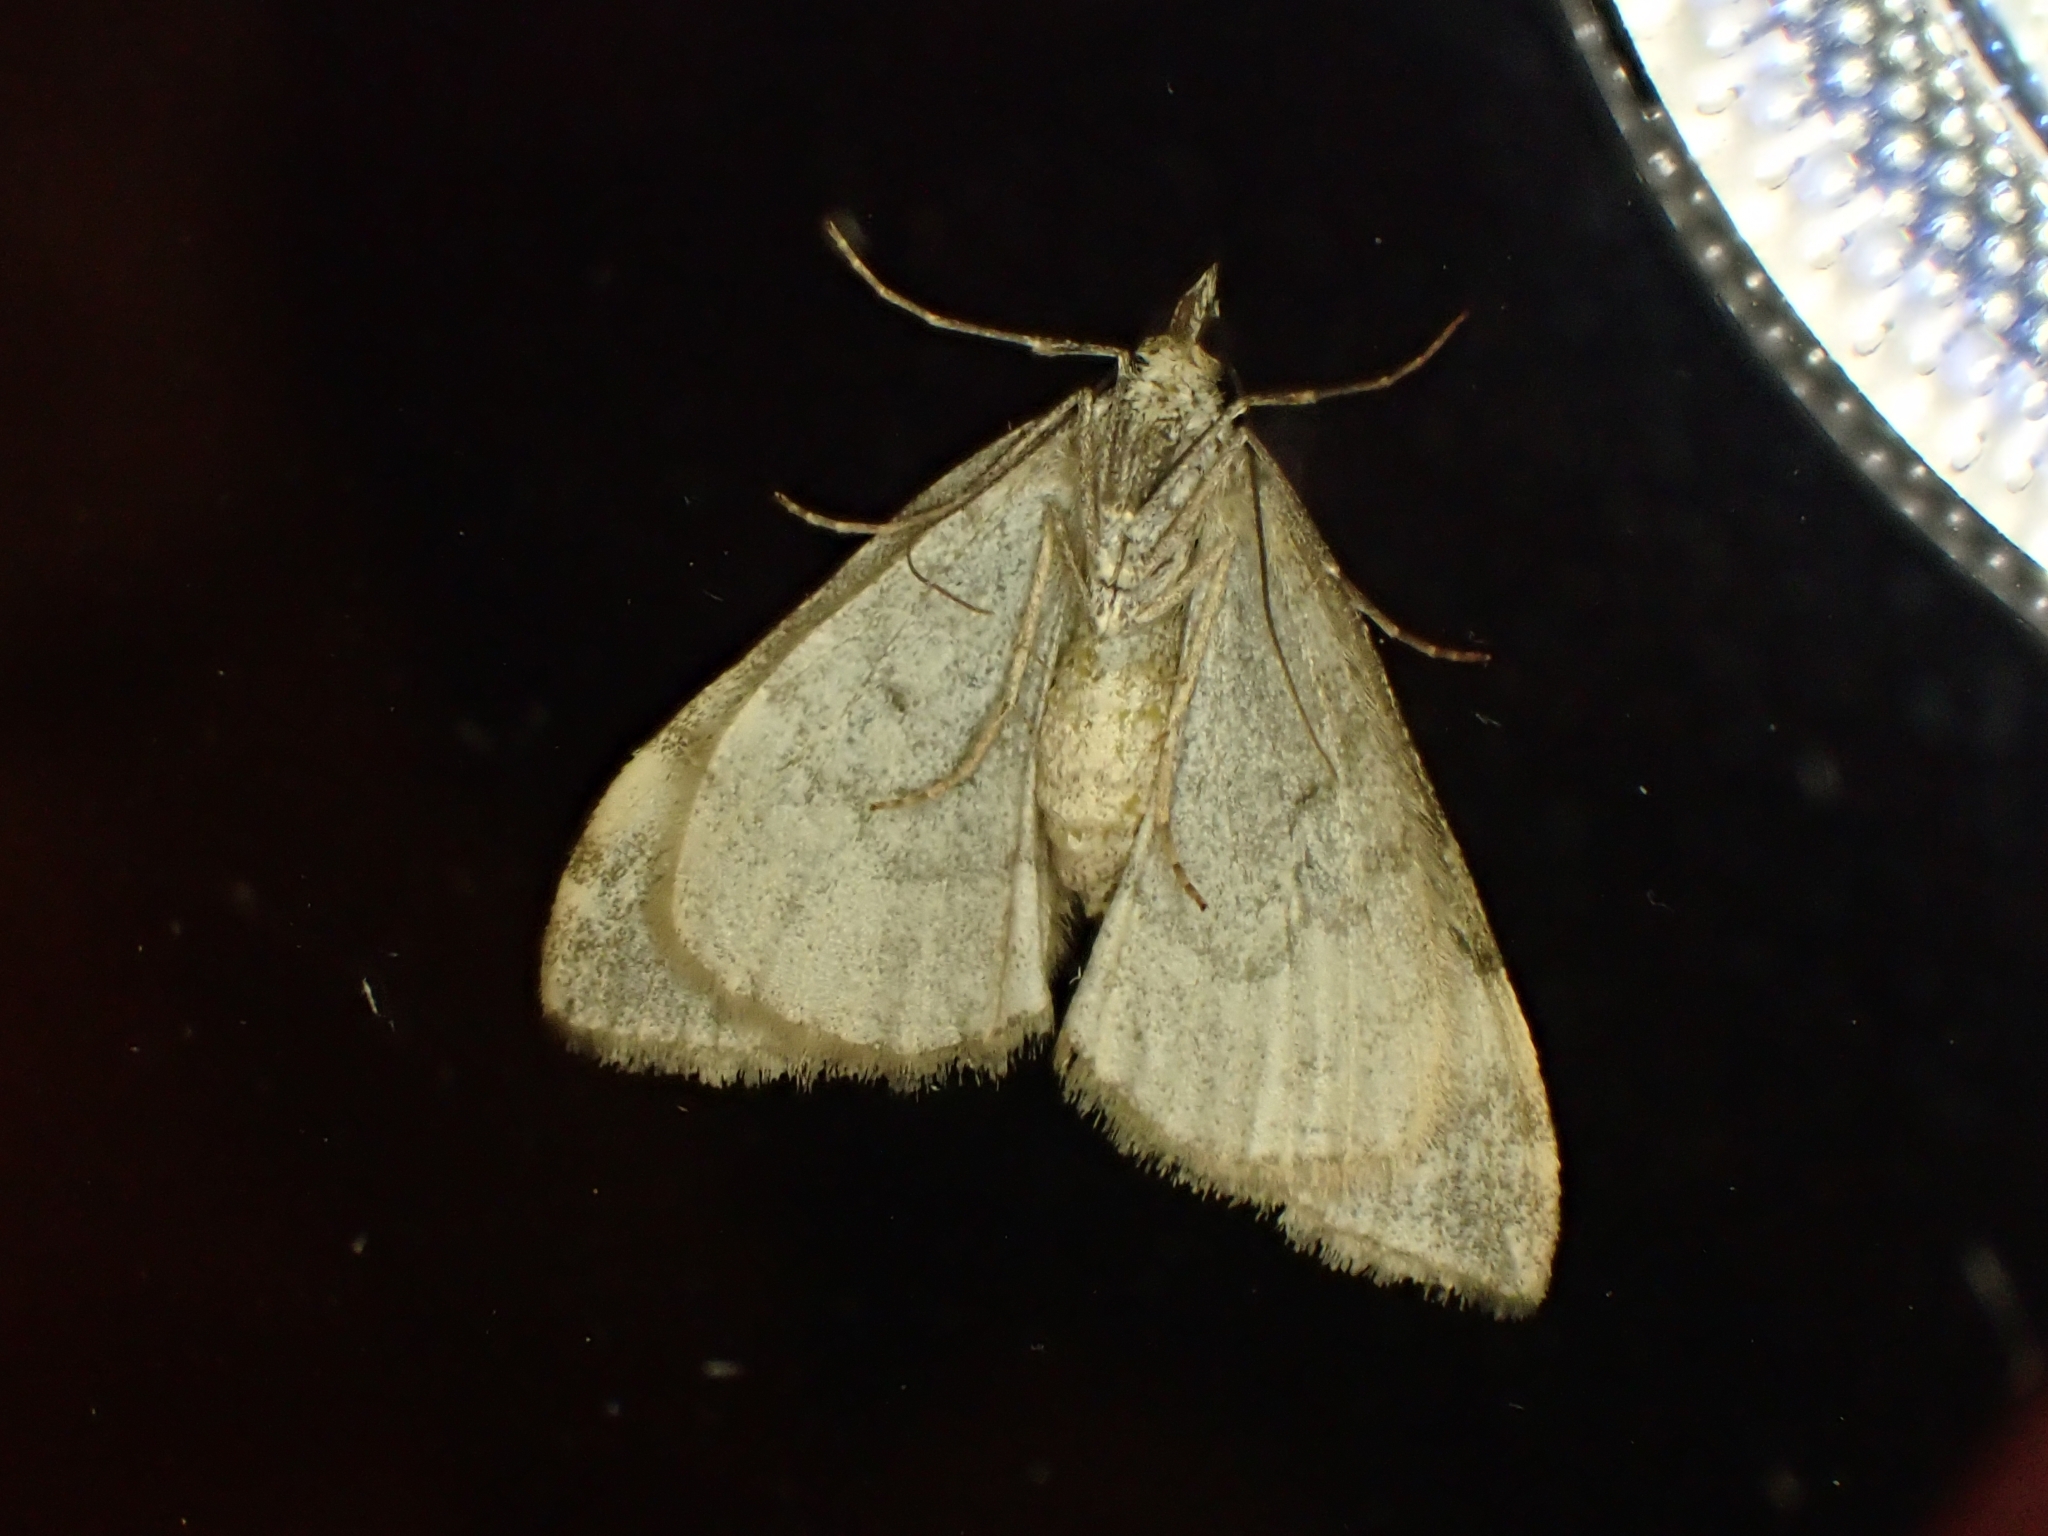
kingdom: Animalia
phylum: Arthropoda
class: Insecta
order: Lepidoptera
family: Geometridae
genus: Dysstroma
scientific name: Dysstroma citrata
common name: Dark marbled carpet
